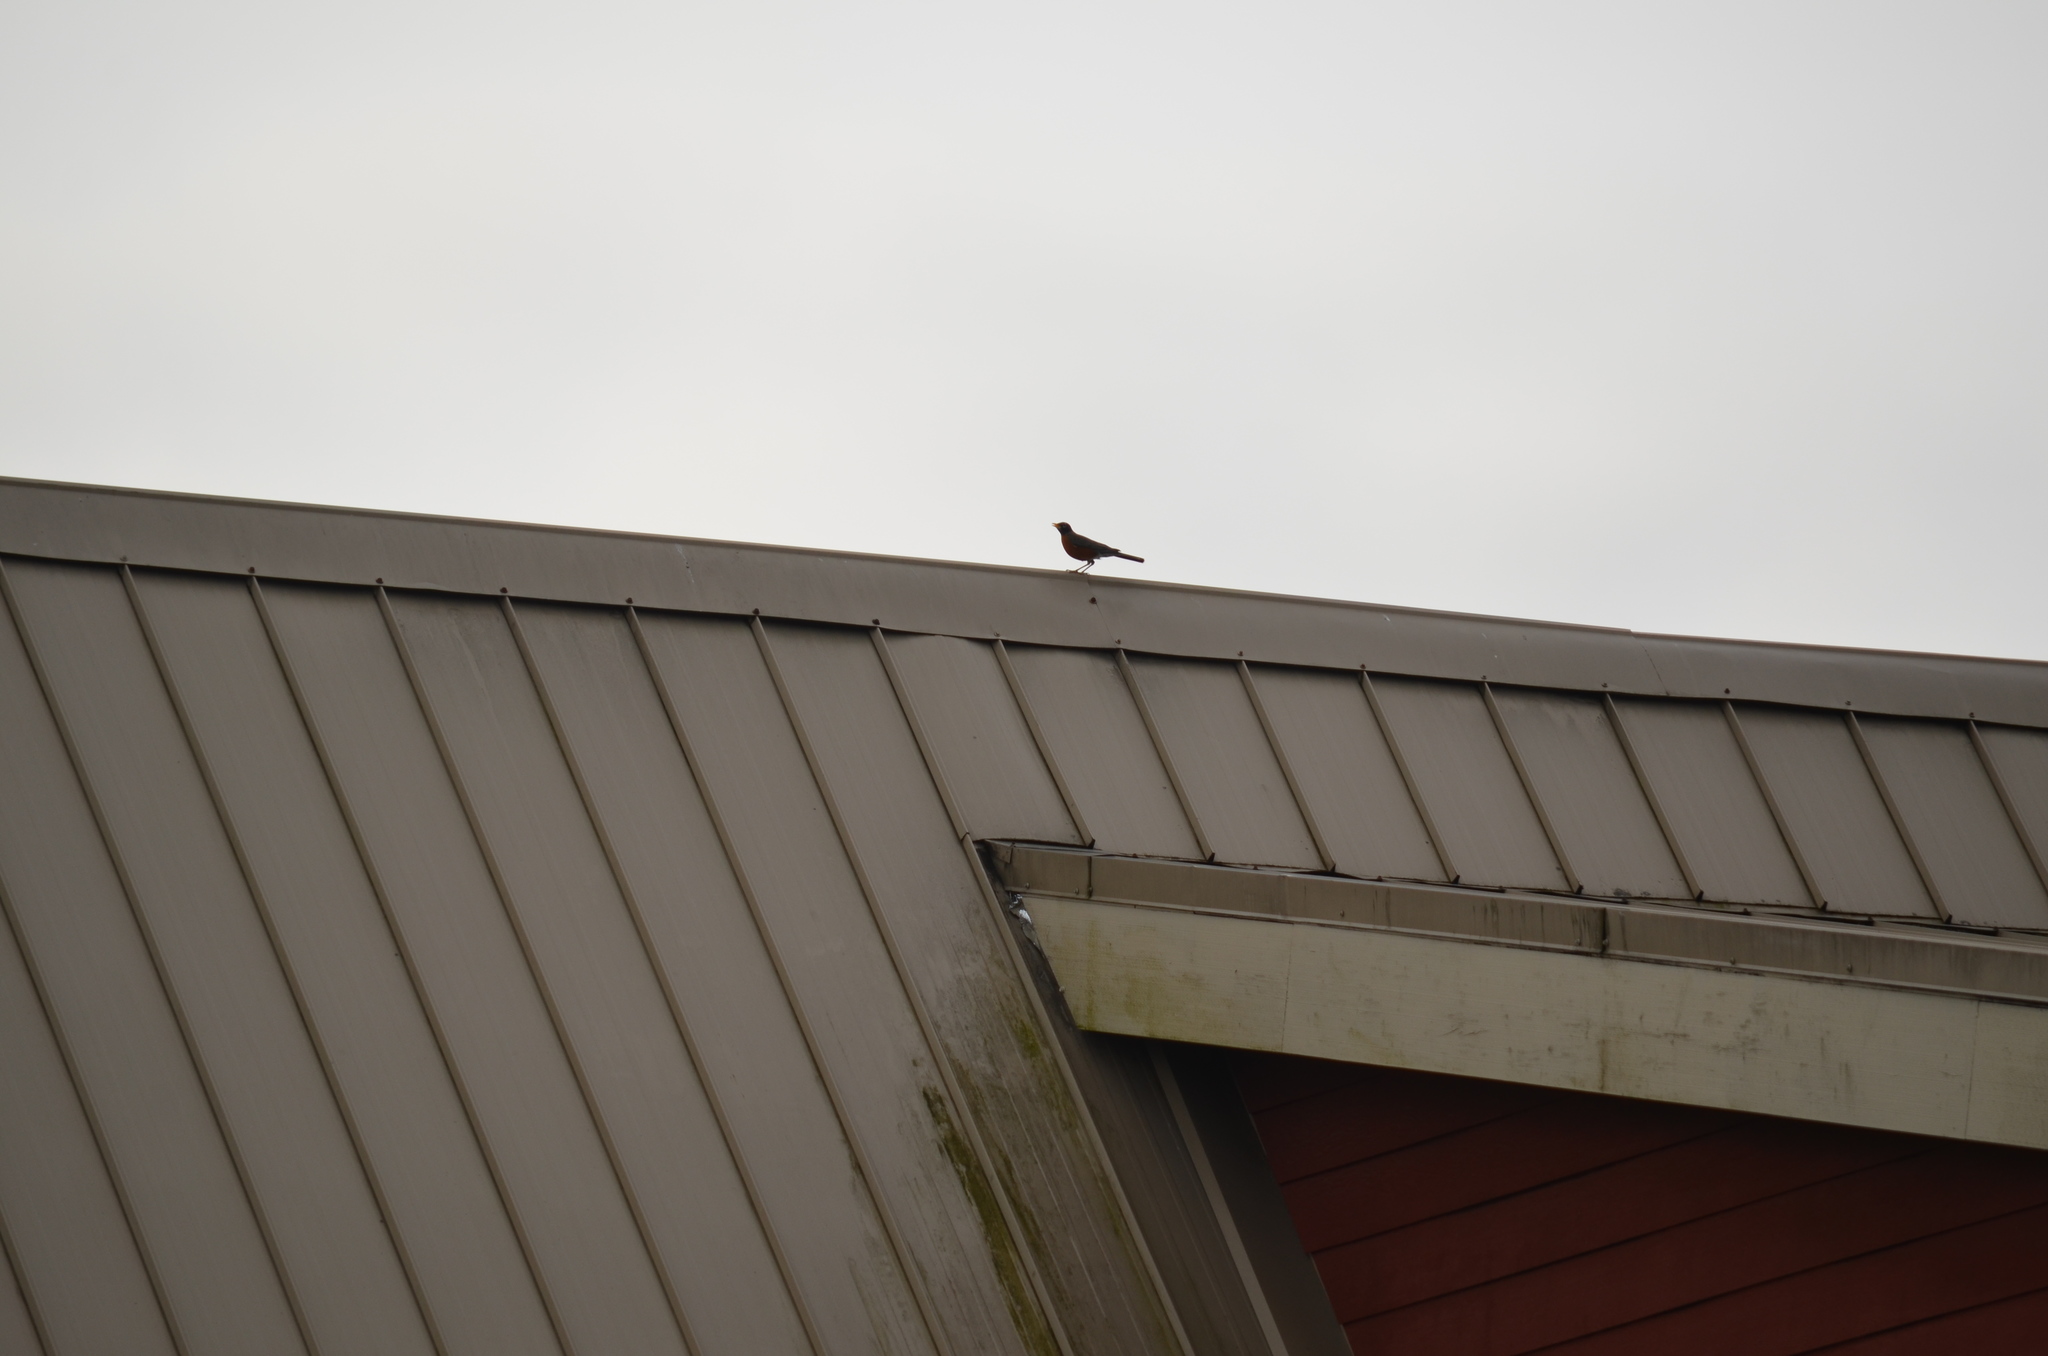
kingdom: Animalia
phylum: Chordata
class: Aves
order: Passeriformes
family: Turdidae
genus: Turdus
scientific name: Turdus migratorius
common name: American robin
